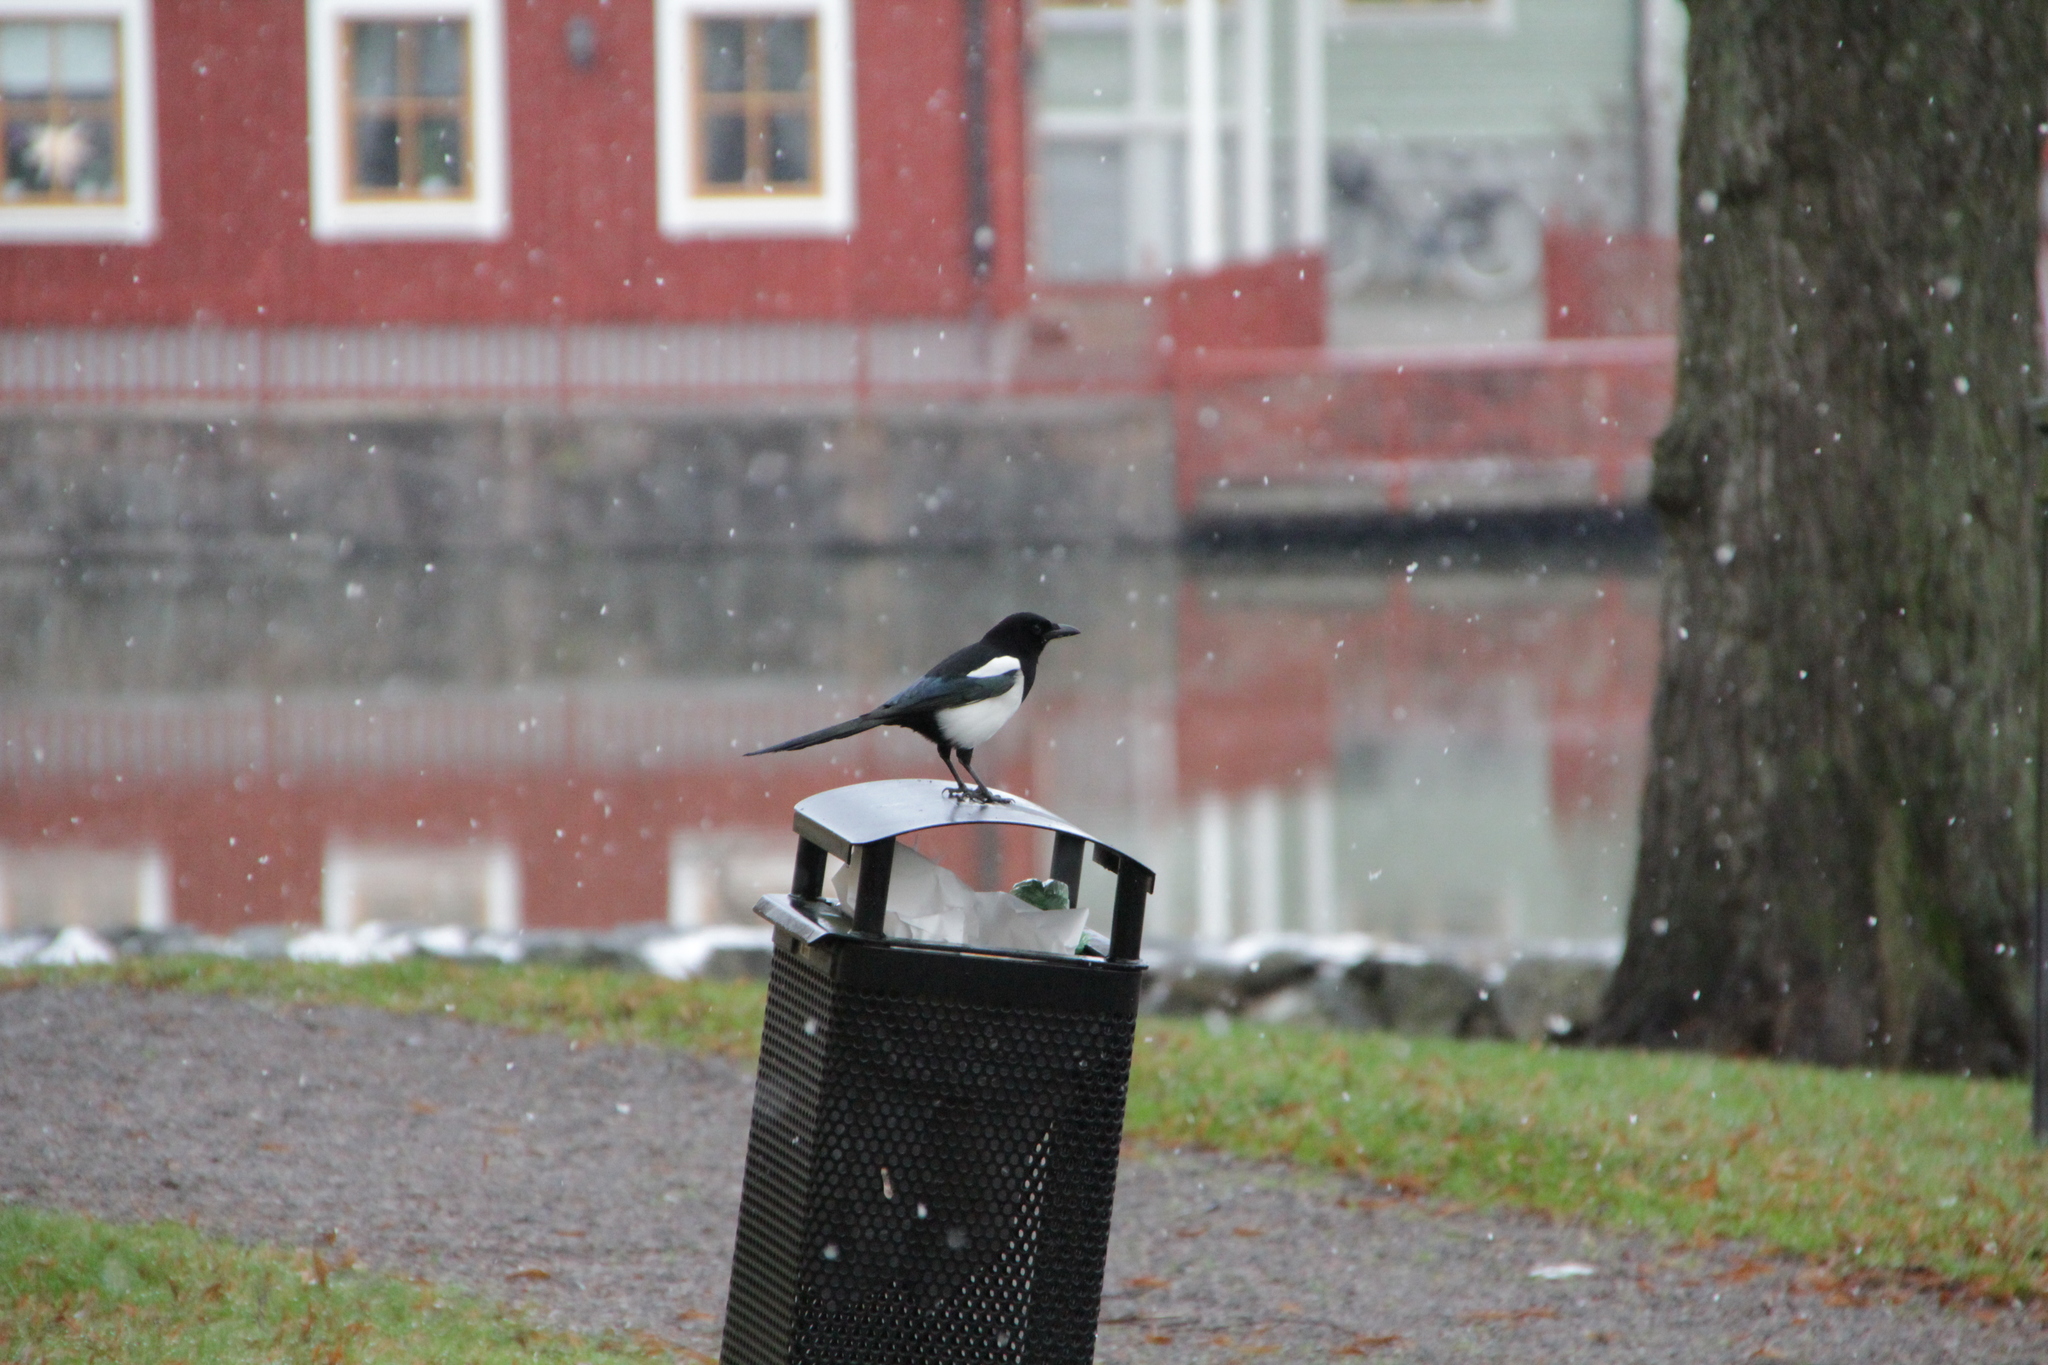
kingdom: Animalia
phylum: Chordata
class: Aves
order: Passeriformes
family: Corvidae
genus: Pica
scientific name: Pica pica
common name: Eurasian magpie
